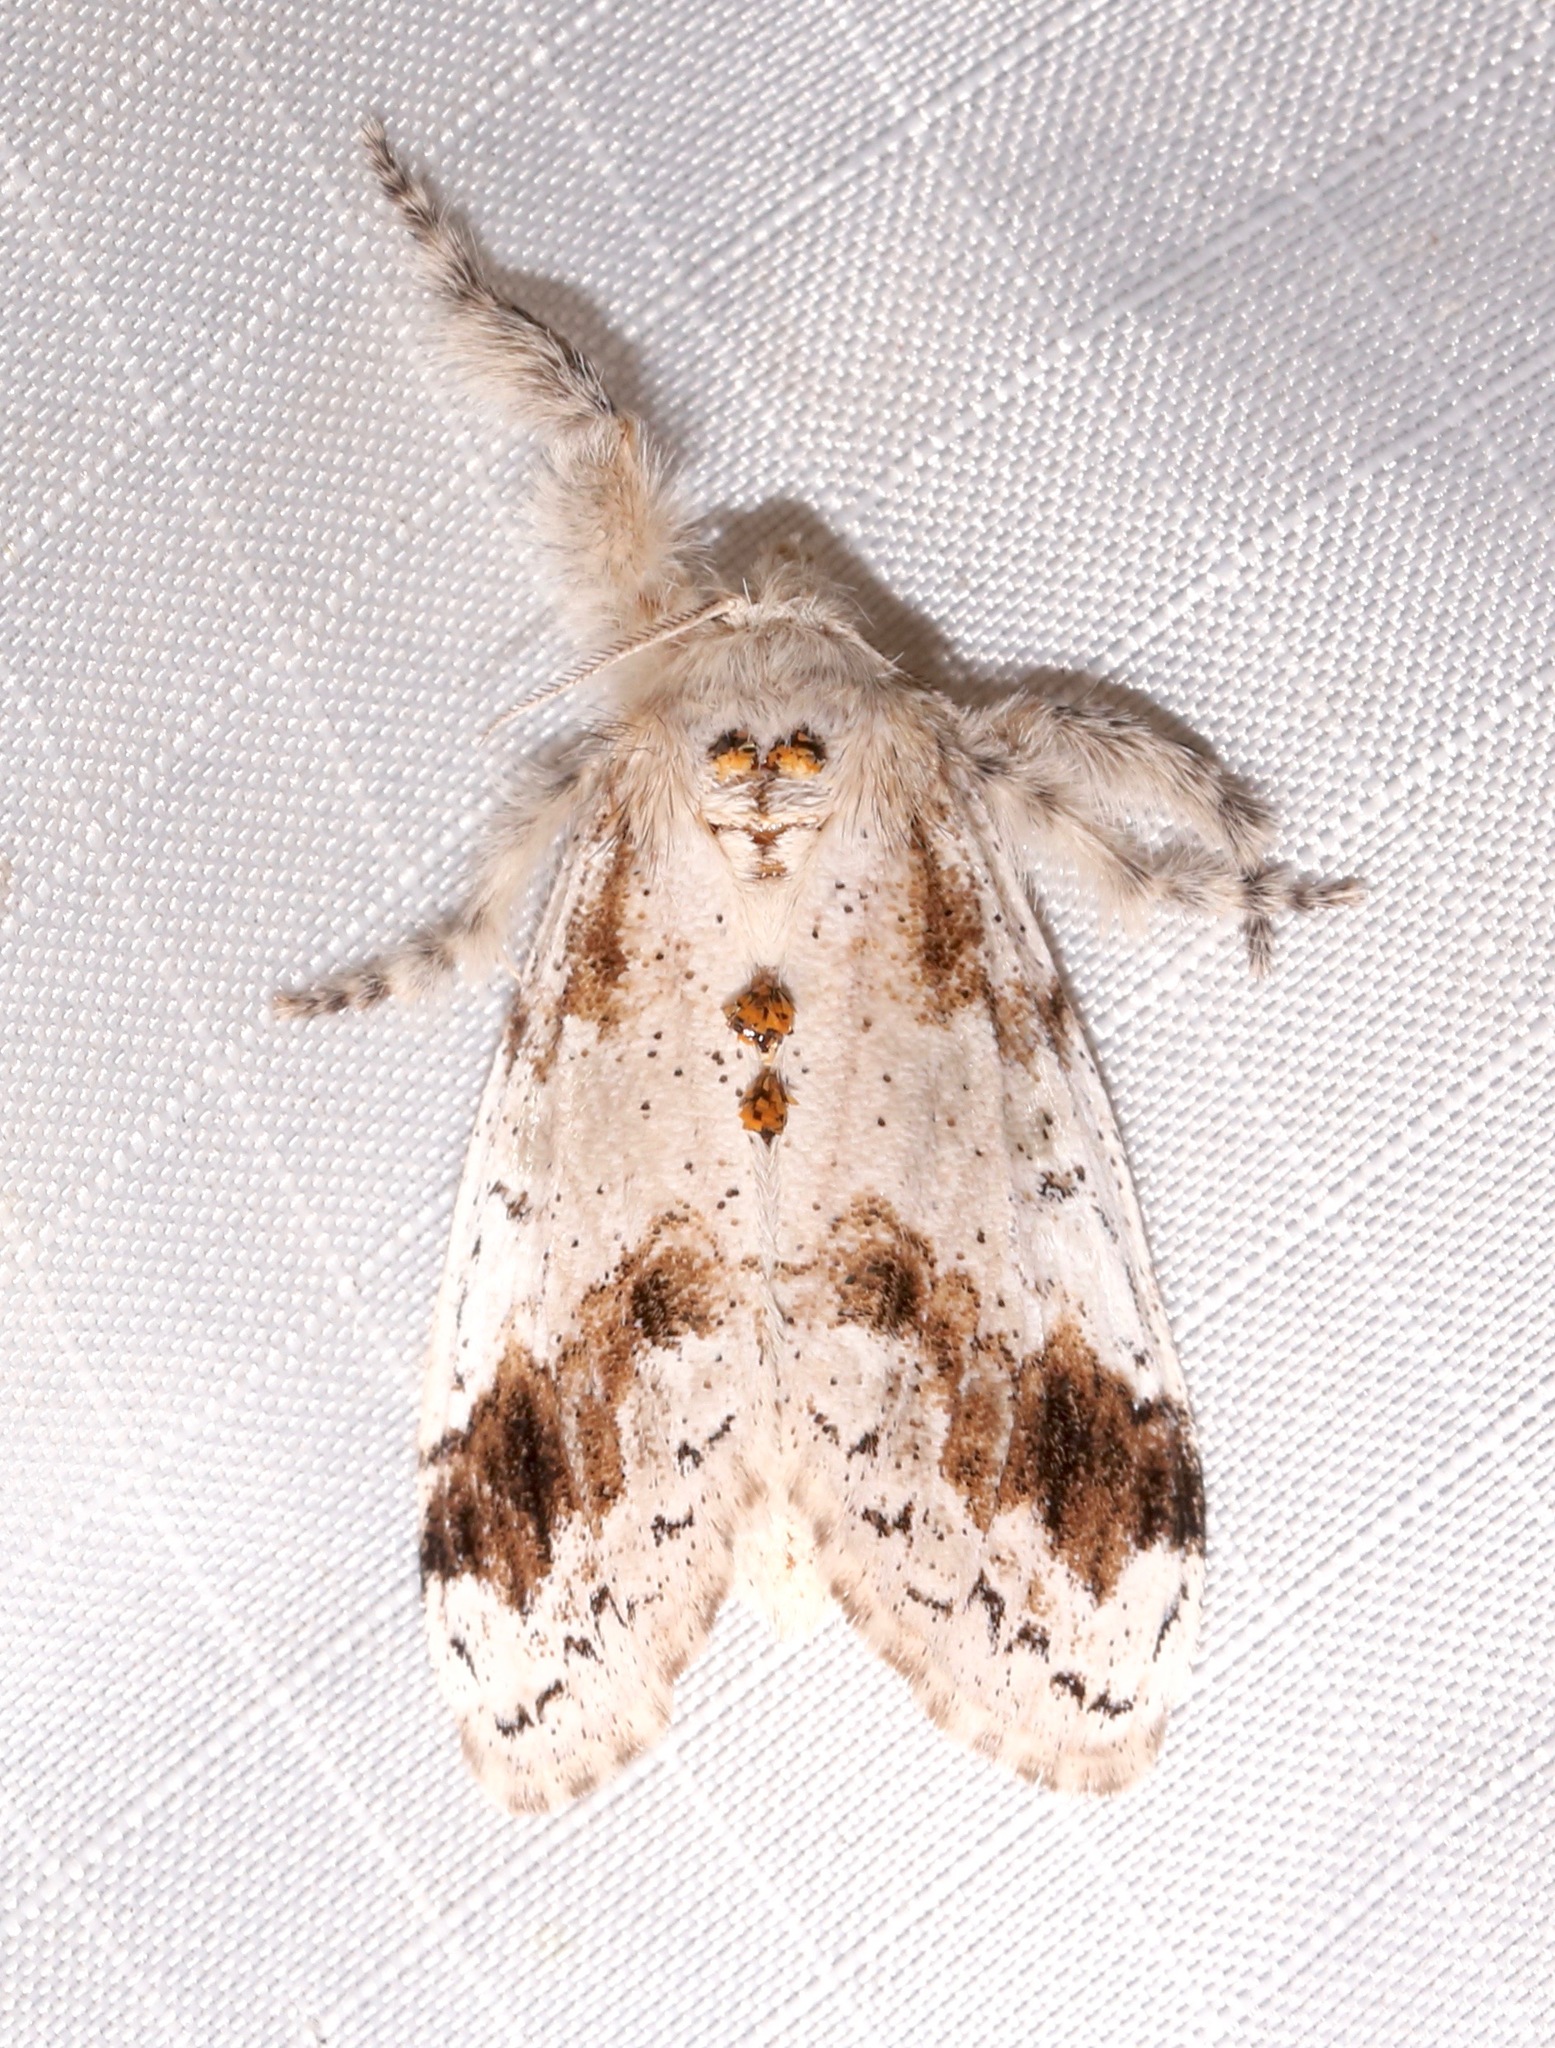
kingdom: Animalia
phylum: Arthropoda
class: Insecta
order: Lepidoptera
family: Erebidae
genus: Dasychira
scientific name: Dasychira leucophaea
